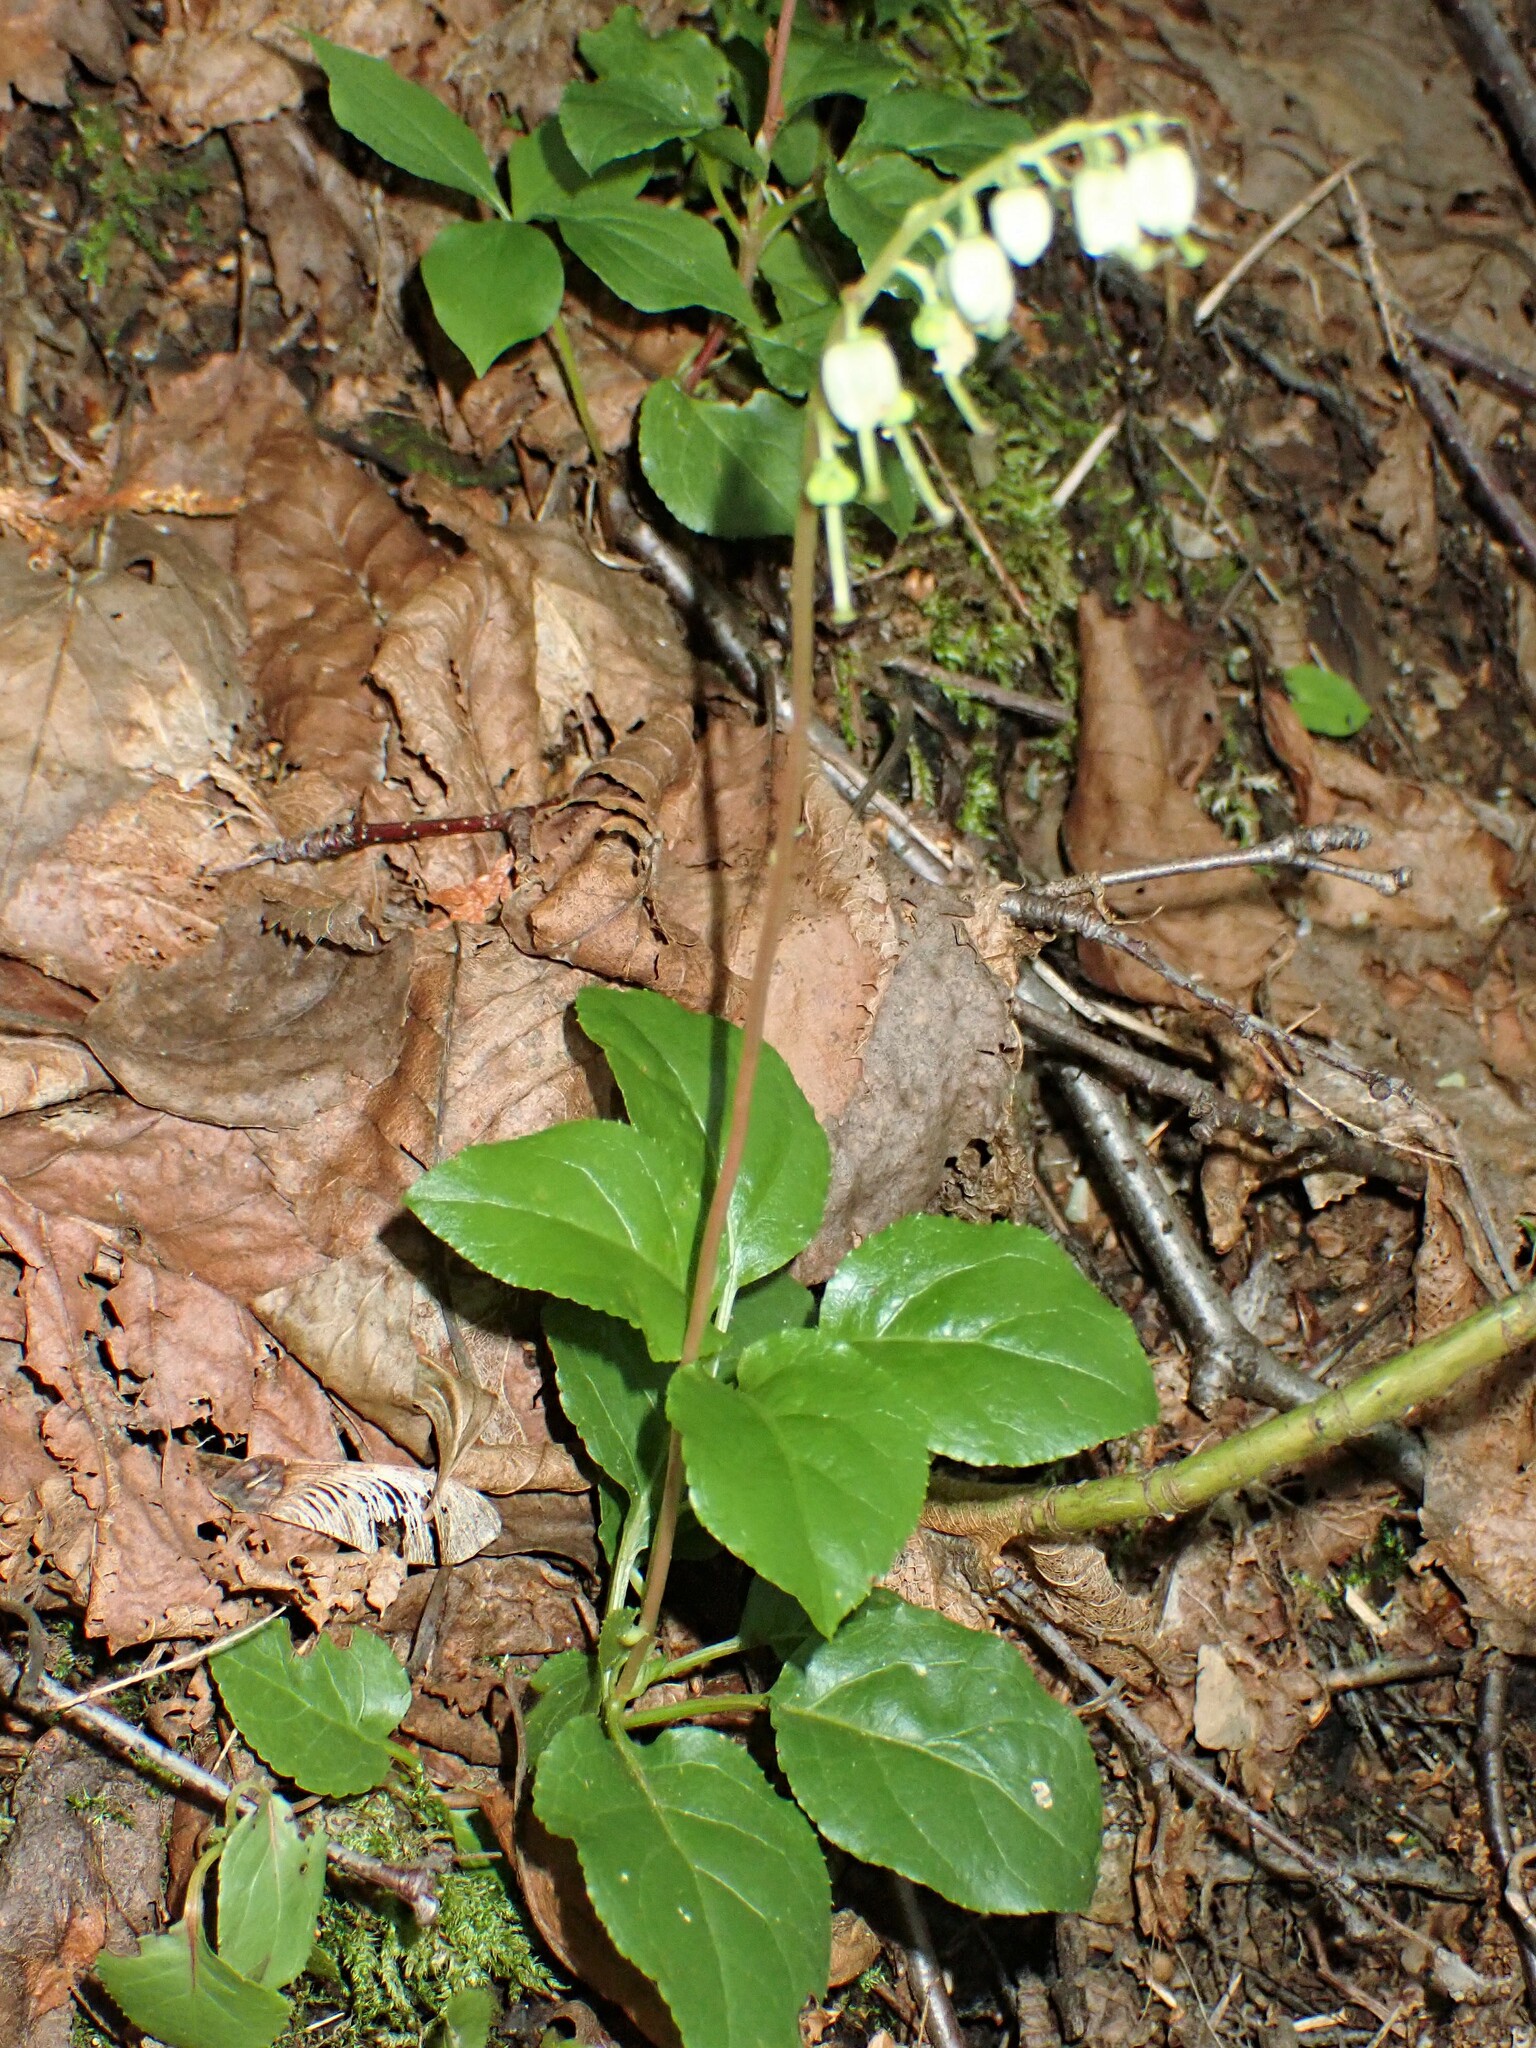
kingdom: Plantae
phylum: Tracheophyta
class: Magnoliopsida
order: Ericales
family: Ericaceae
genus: Orthilia
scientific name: Orthilia secunda
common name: One-sided orthilia
